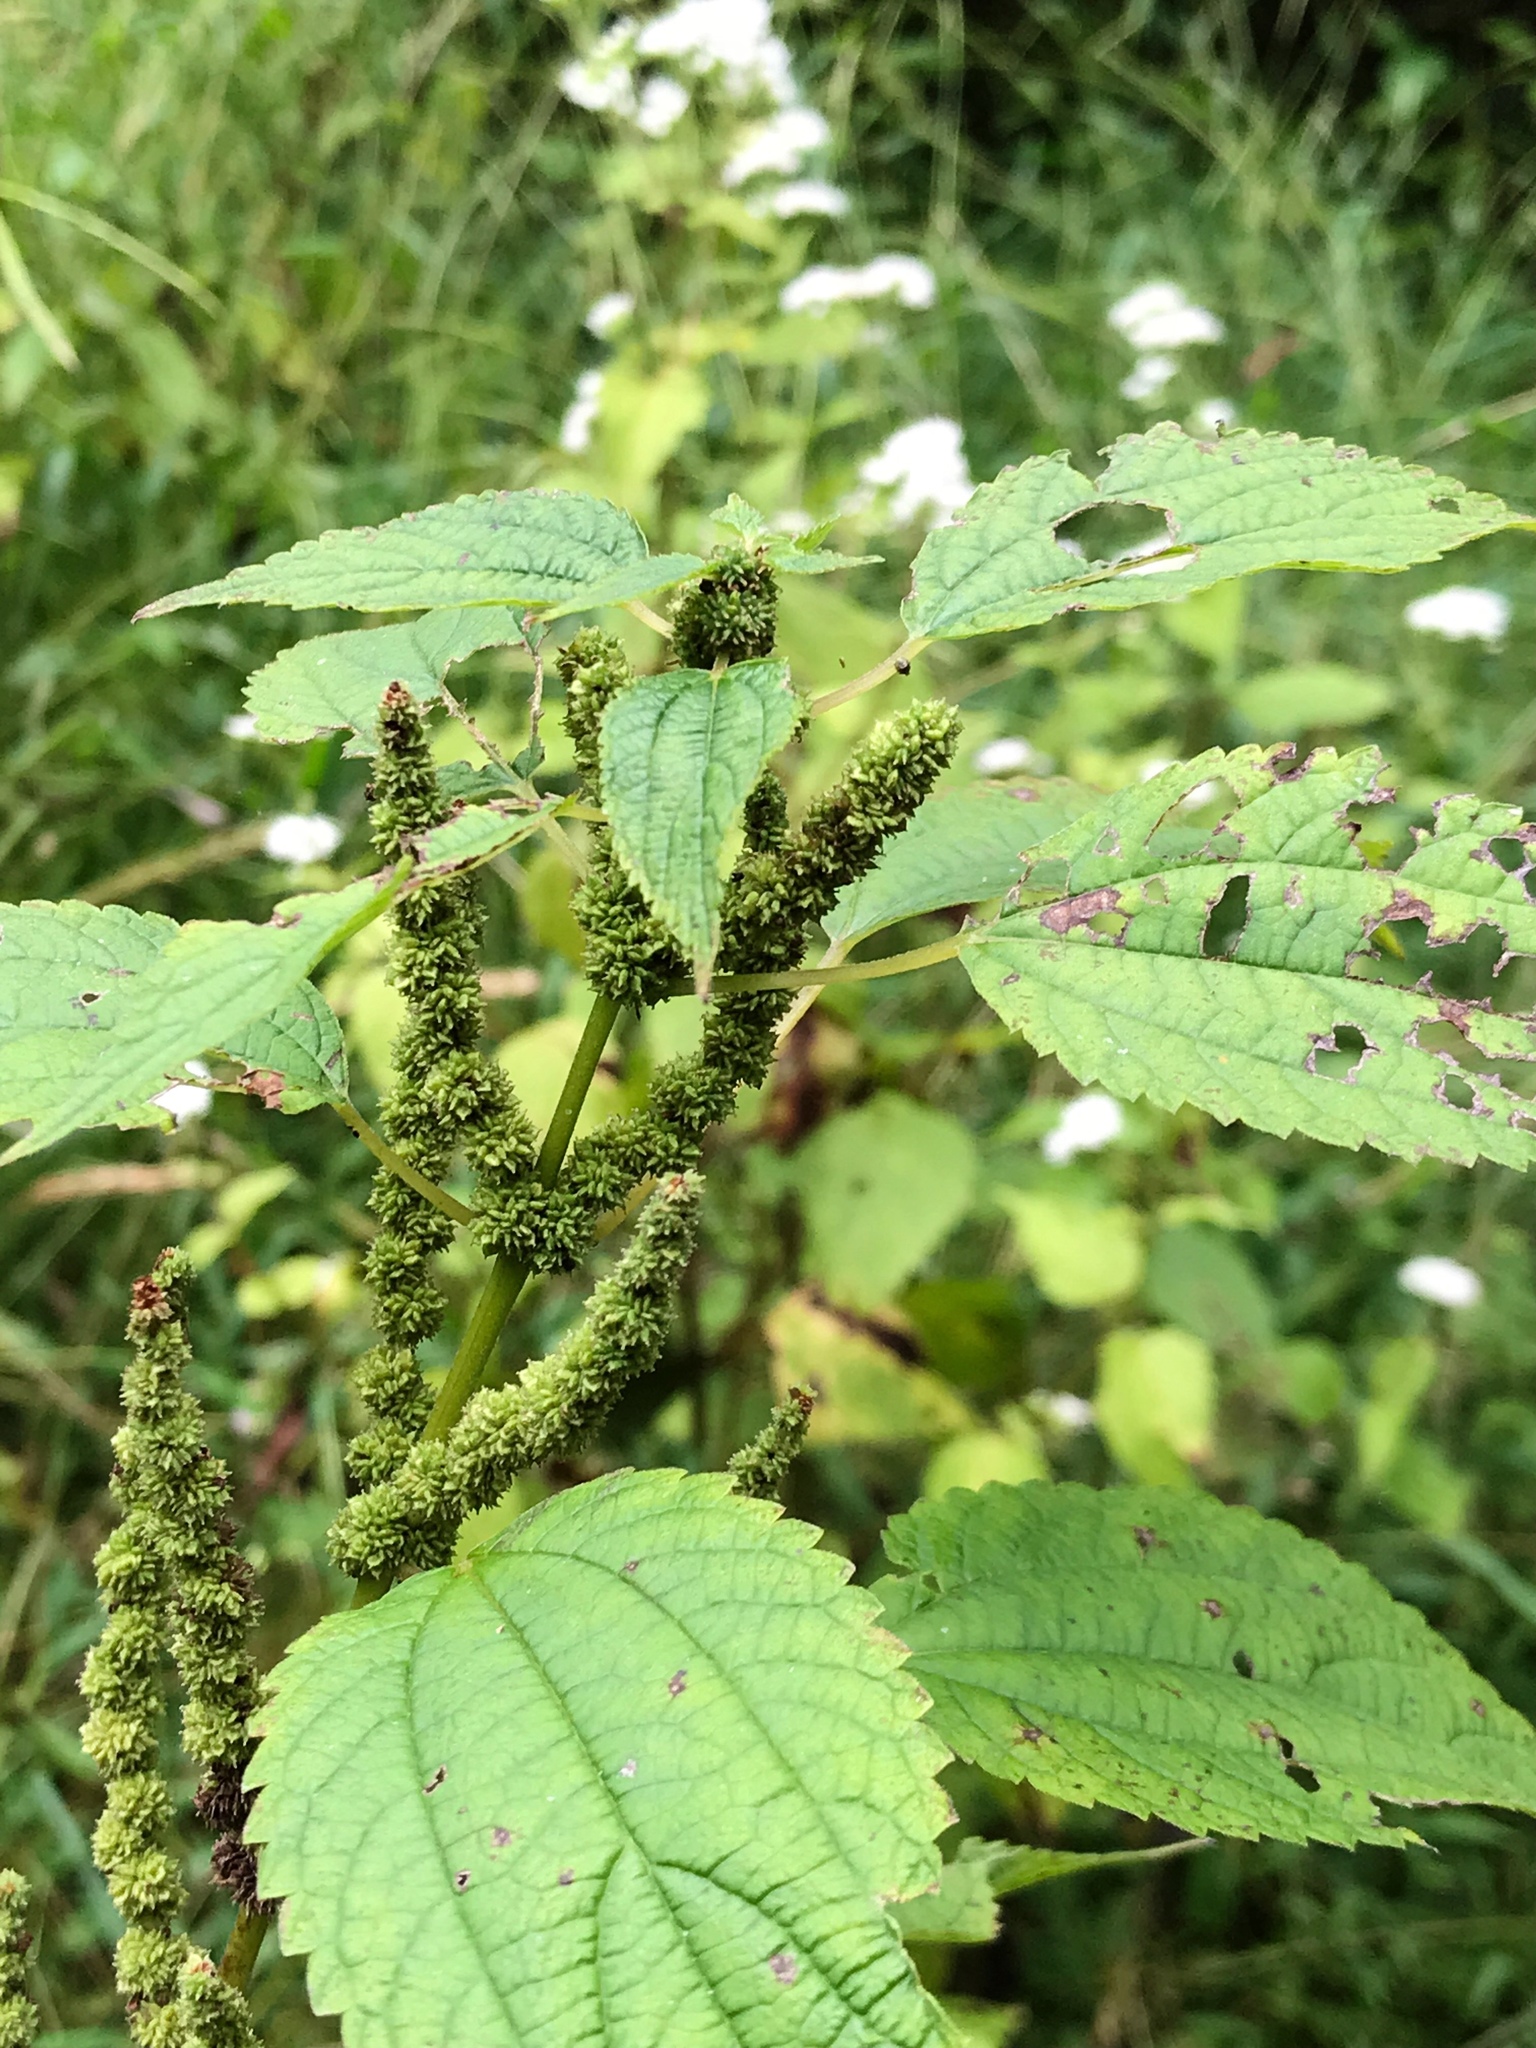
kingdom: Plantae
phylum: Tracheophyta
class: Magnoliopsida
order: Rosales
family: Urticaceae
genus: Boehmeria
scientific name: Boehmeria cylindrica
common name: Bog-hemp
